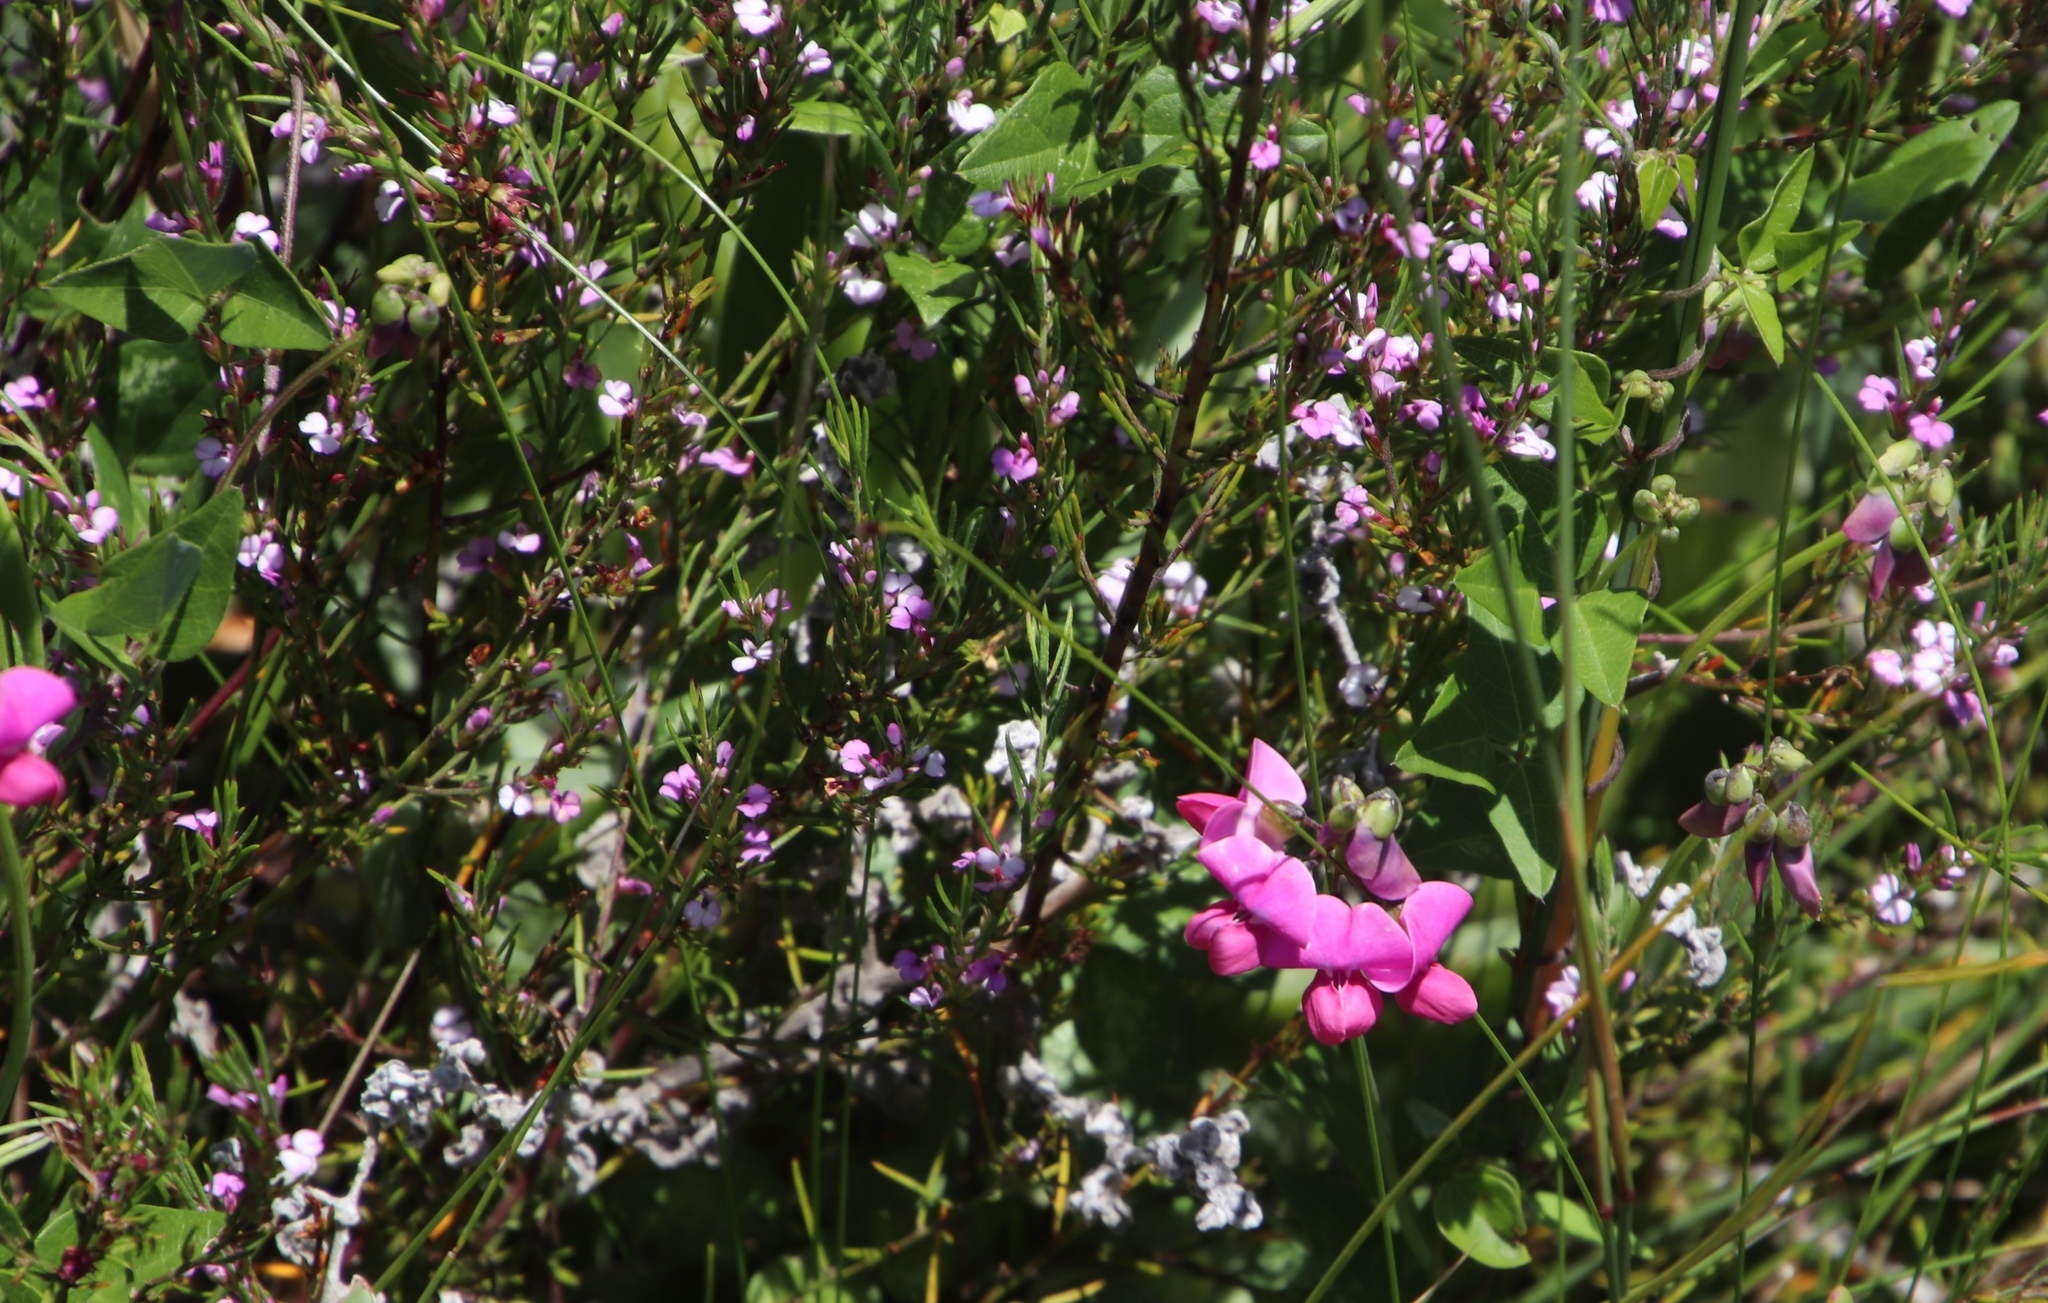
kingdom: Plantae
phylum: Tracheophyta
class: Magnoliopsida
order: Fabales
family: Fabaceae
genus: Dipogon
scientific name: Dipogon lignosus
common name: Okie bean
